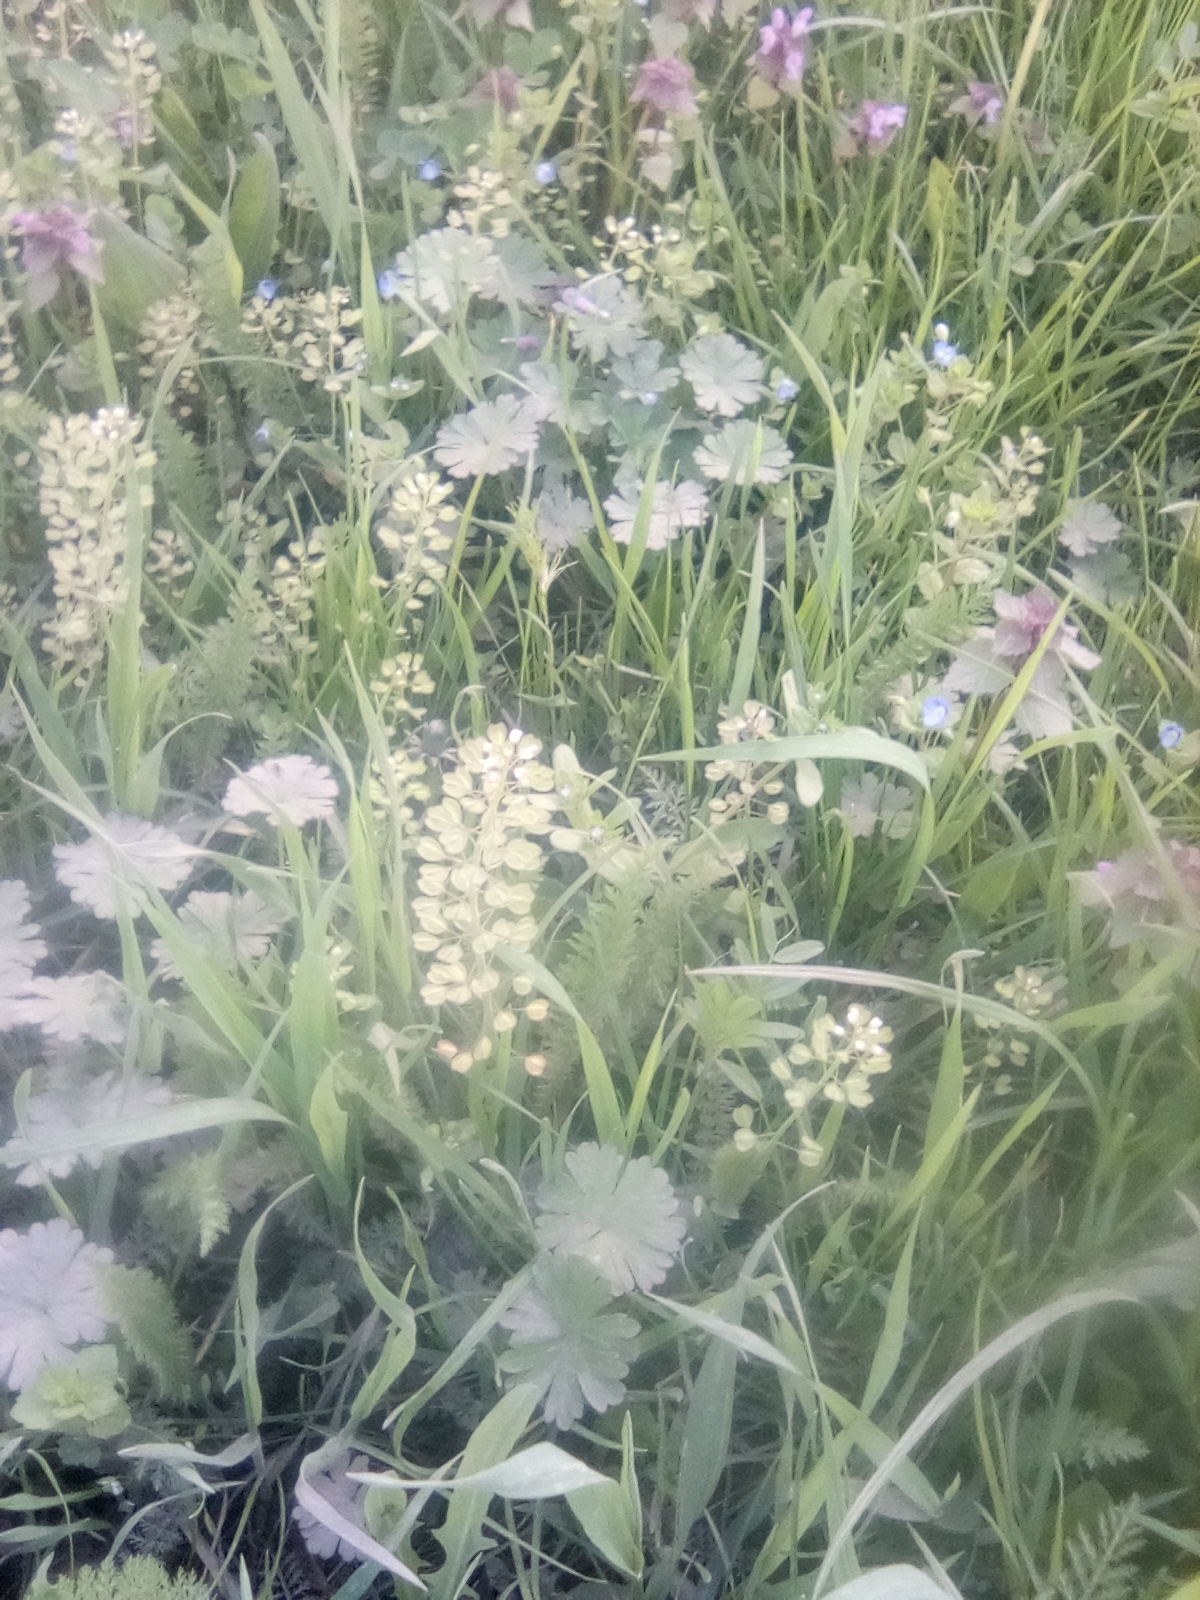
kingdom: Plantae
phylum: Tracheophyta
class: Magnoliopsida
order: Brassicales
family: Brassicaceae
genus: Noccaea
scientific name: Noccaea perfoliata
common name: Perfoliate pennycress
